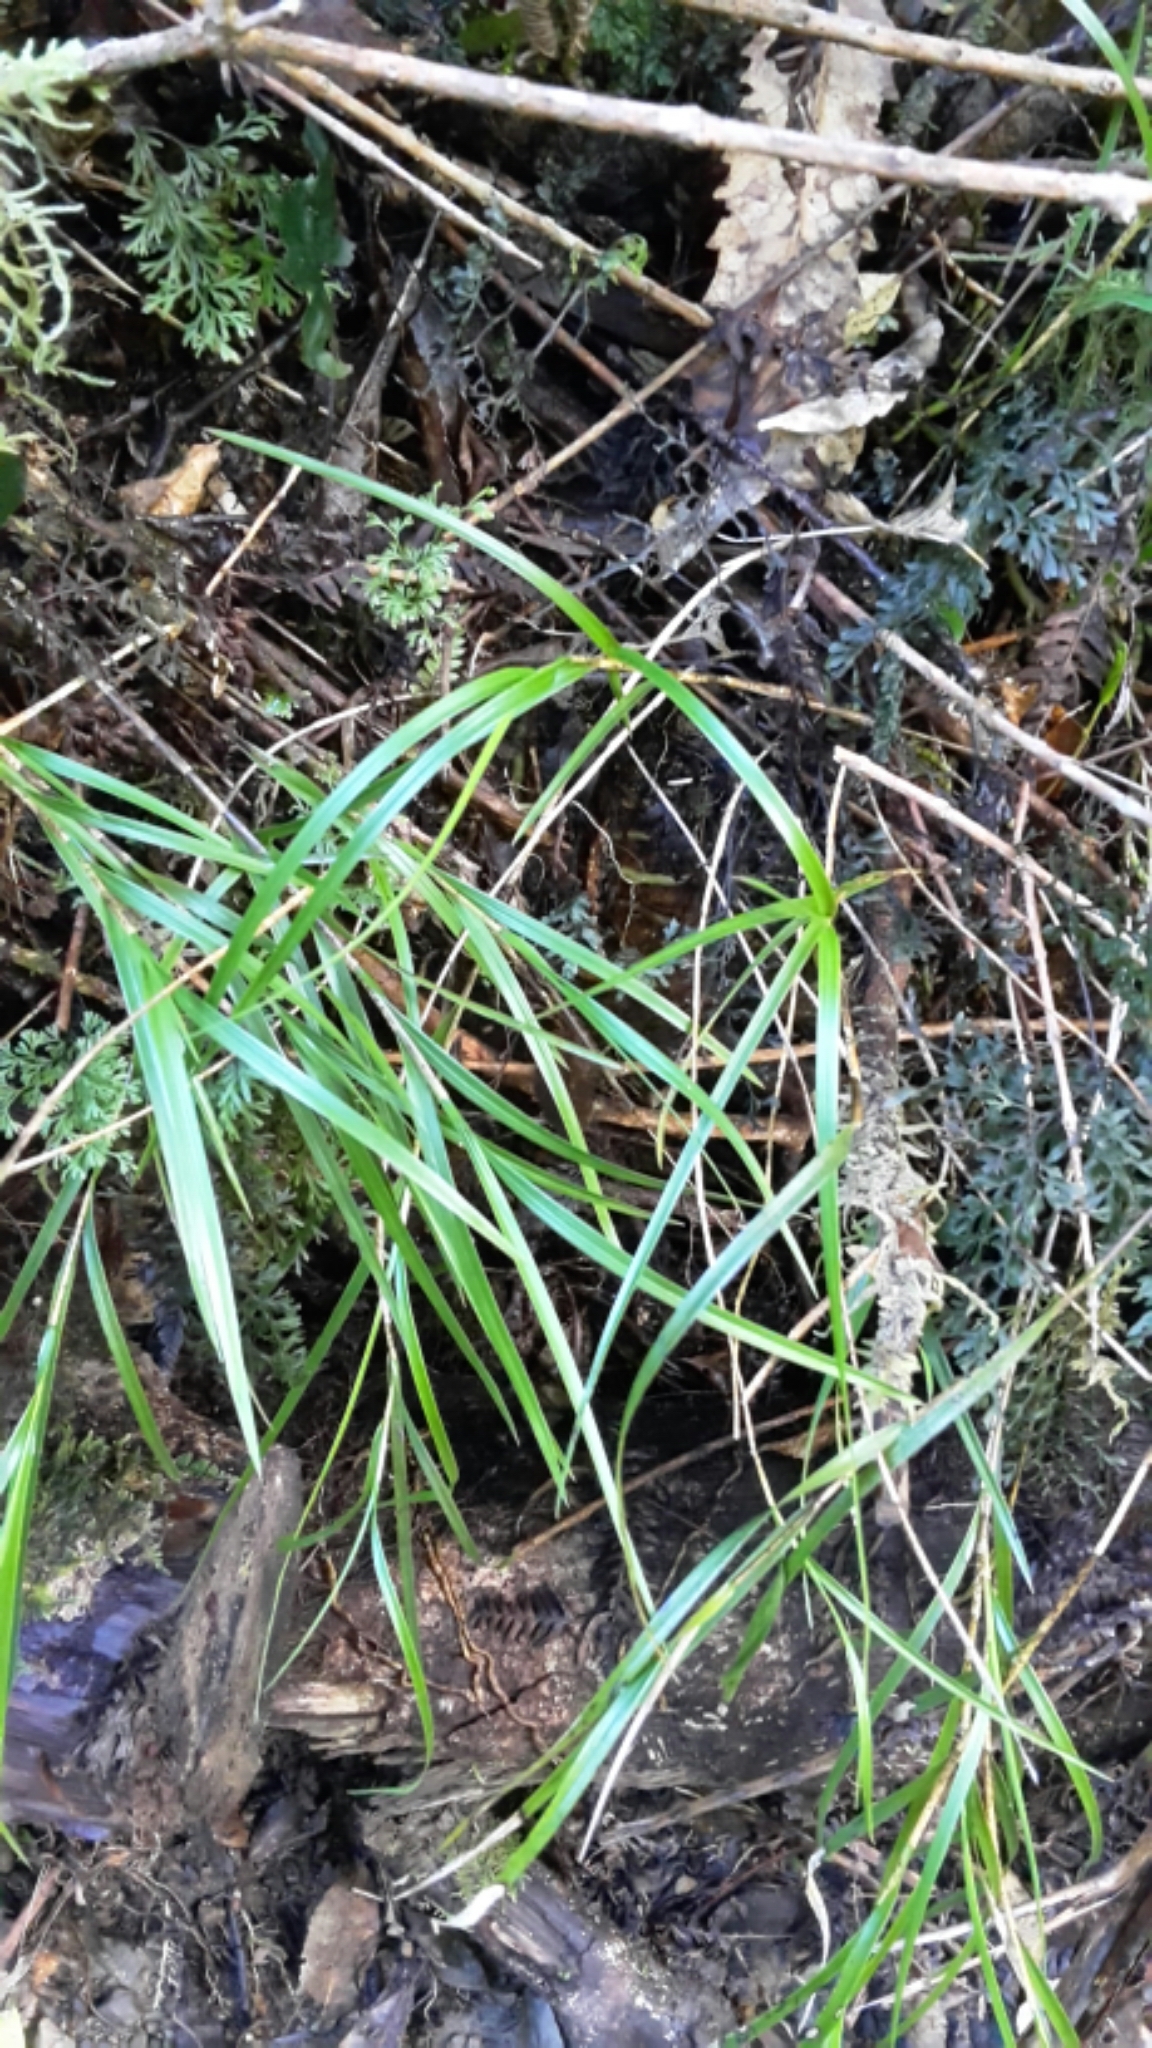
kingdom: Plantae
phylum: Tracheophyta
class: Liliopsida
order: Asparagales
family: Orchidaceae
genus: Earina
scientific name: Earina mucronata
